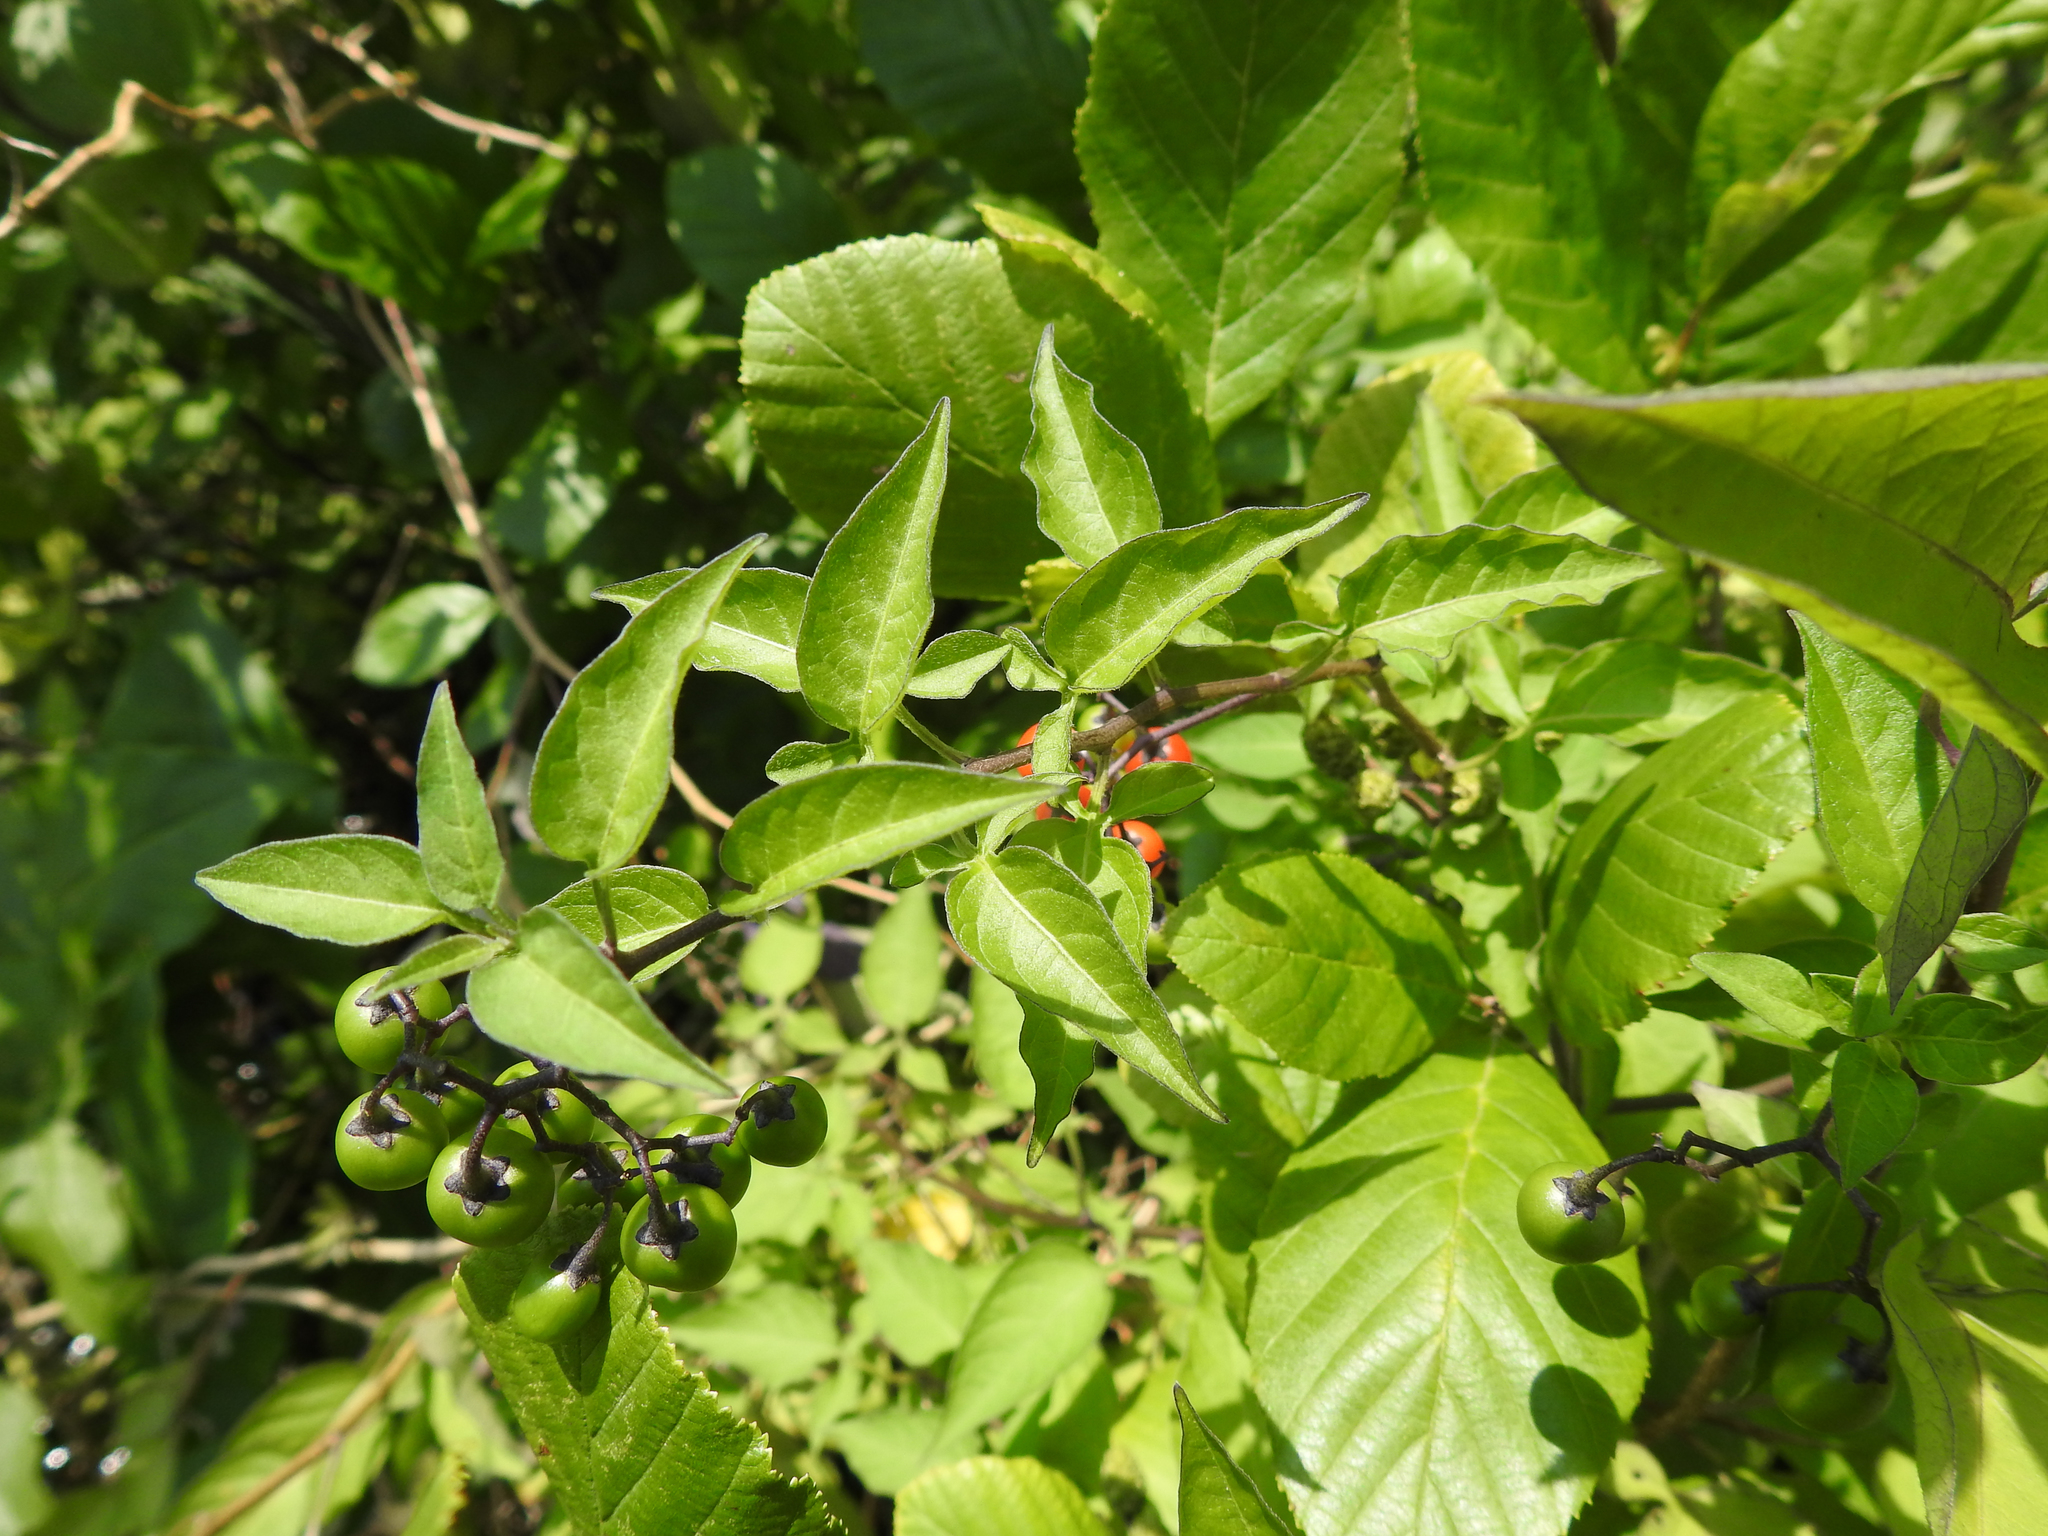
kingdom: Plantae
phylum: Tracheophyta
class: Magnoliopsida
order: Solanales
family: Solanaceae
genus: Solanum
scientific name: Solanum dulcamara
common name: Climbing nightshade
